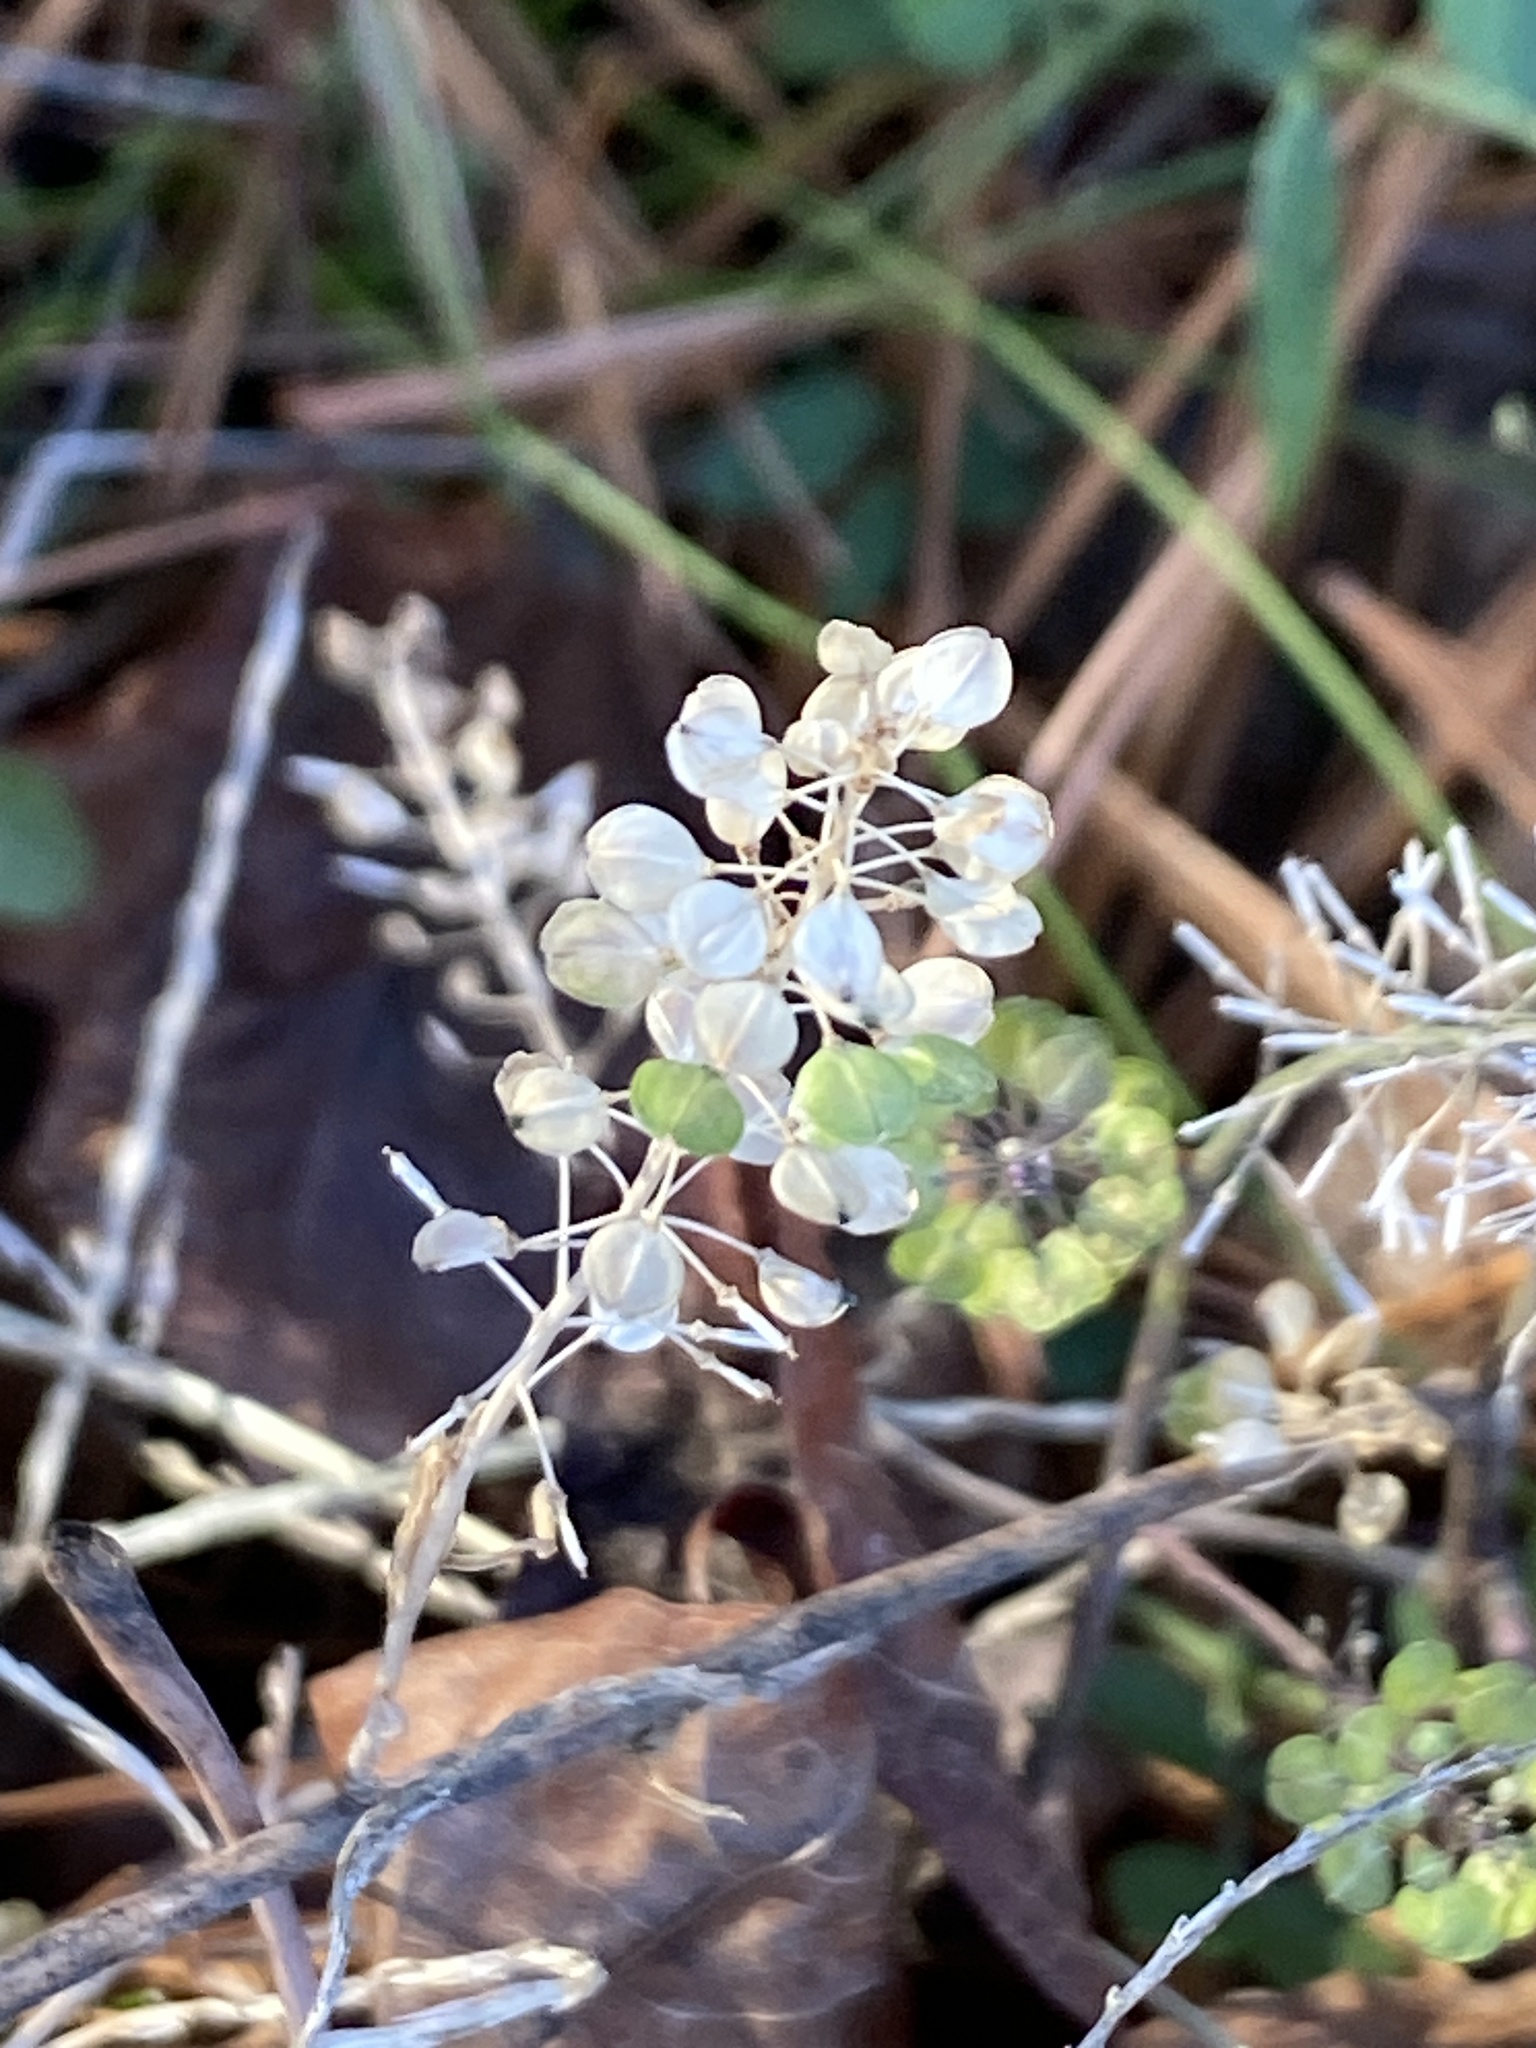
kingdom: Plantae
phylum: Tracheophyta
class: Magnoliopsida
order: Brassicales
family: Brassicaceae
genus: Lepidium
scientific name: Lepidium virginicum
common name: Least pepperwort
